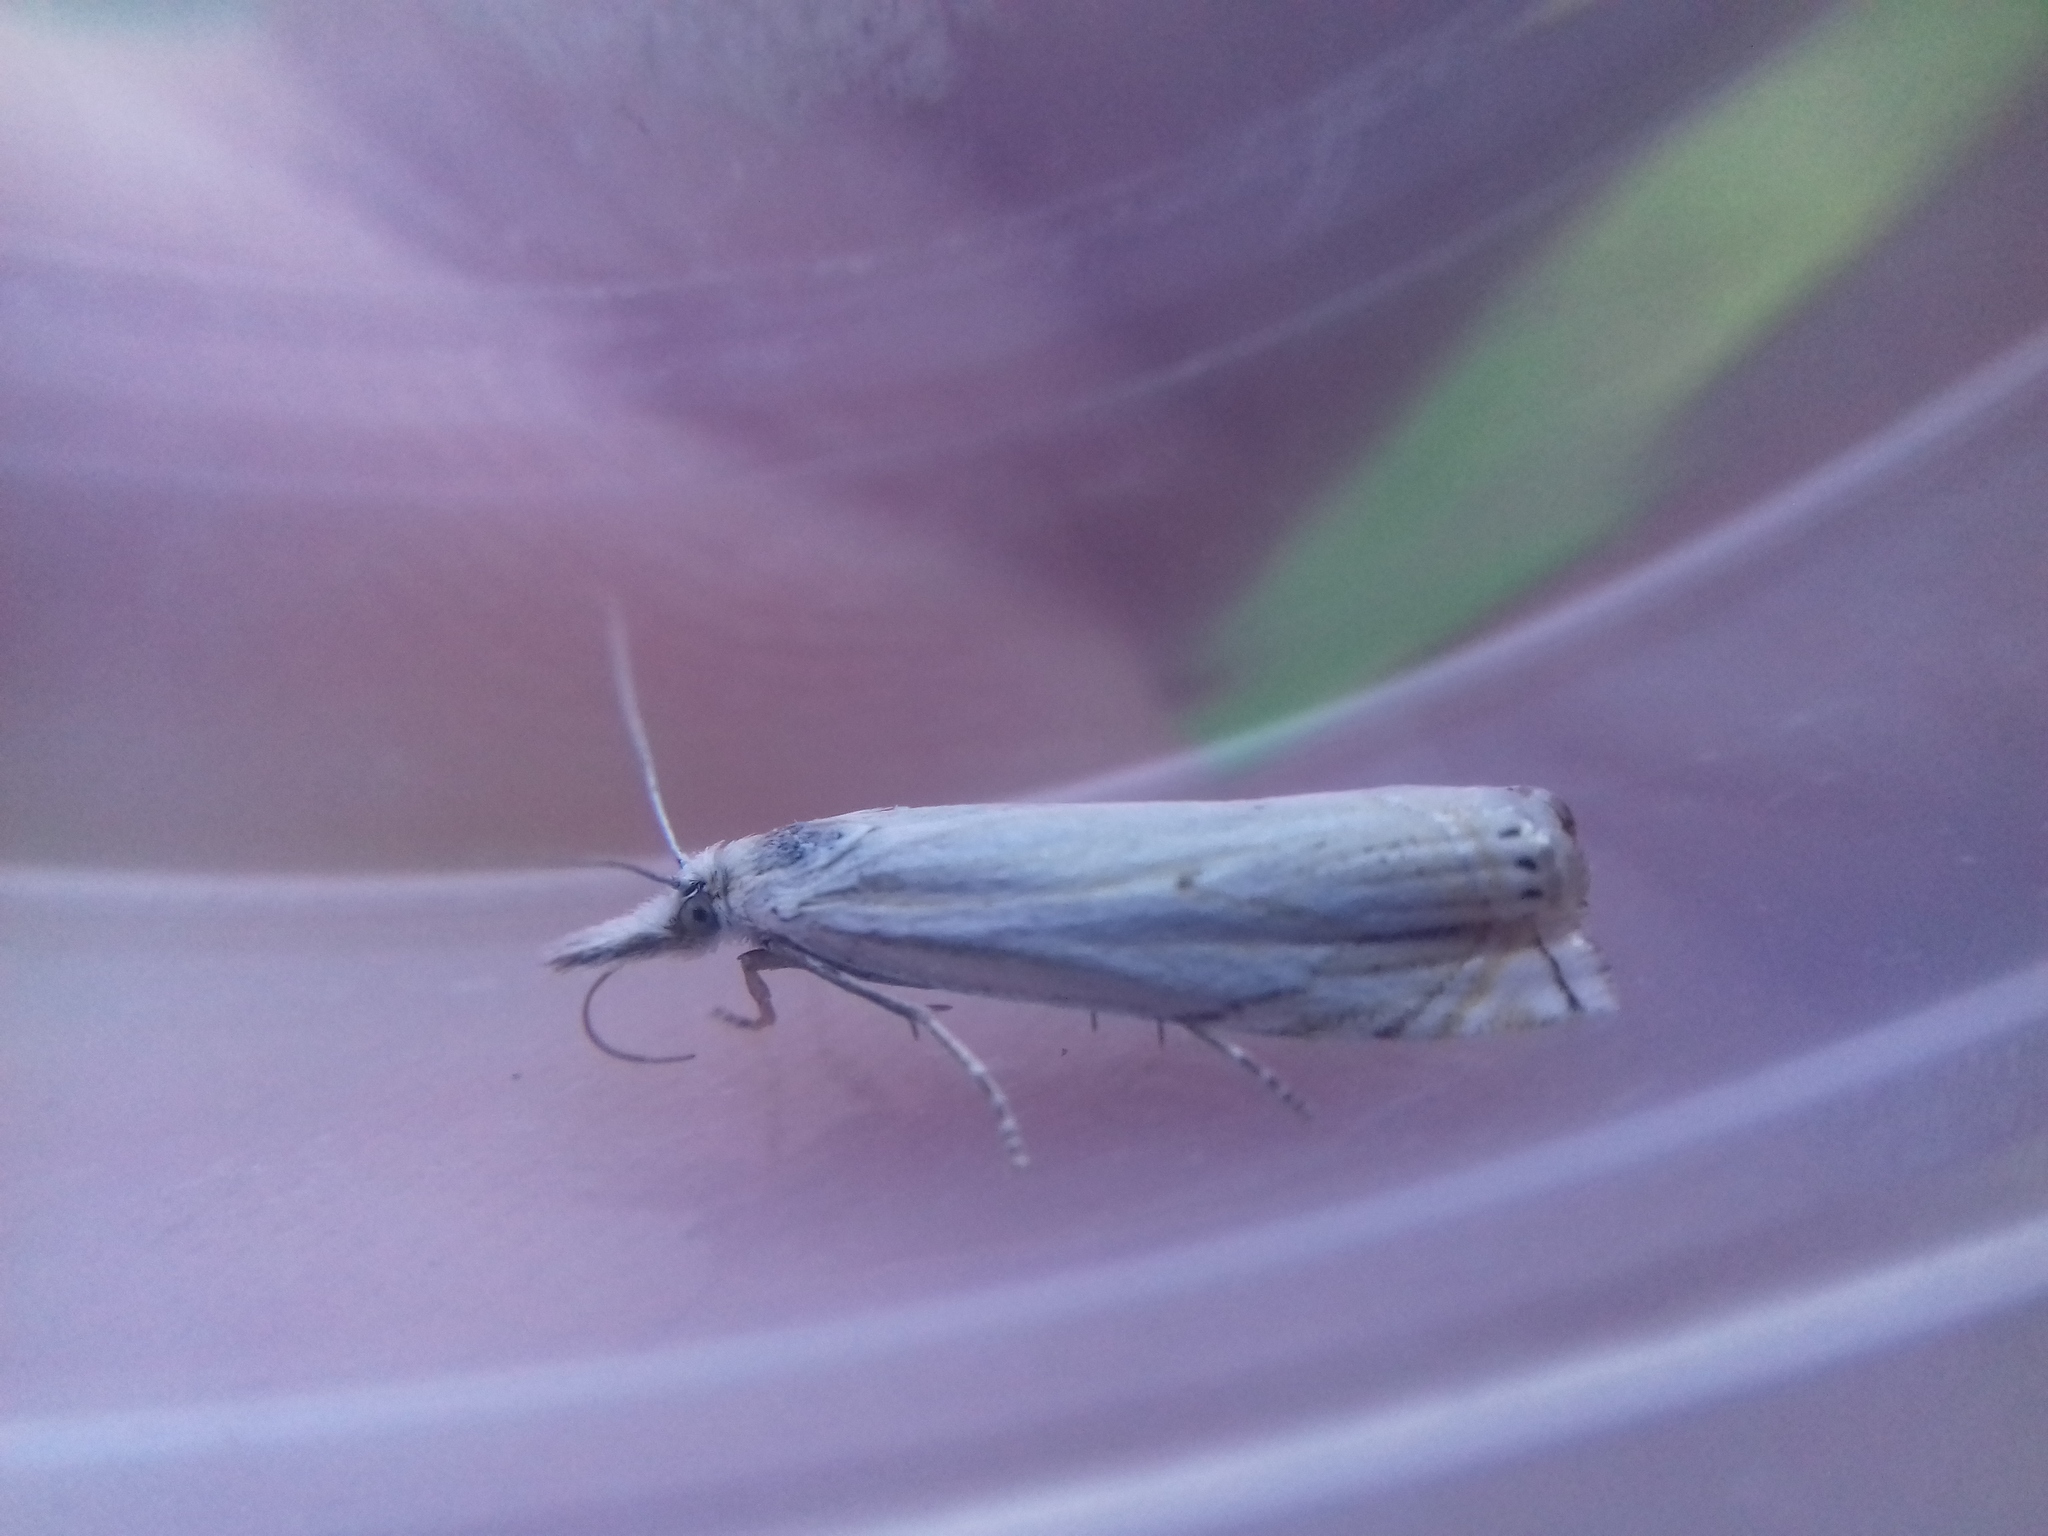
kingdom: Animalia
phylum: Arthropoda
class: Insecta
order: Lepidoptera
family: Crambidae
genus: Crambus
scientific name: Crambus nemorella
